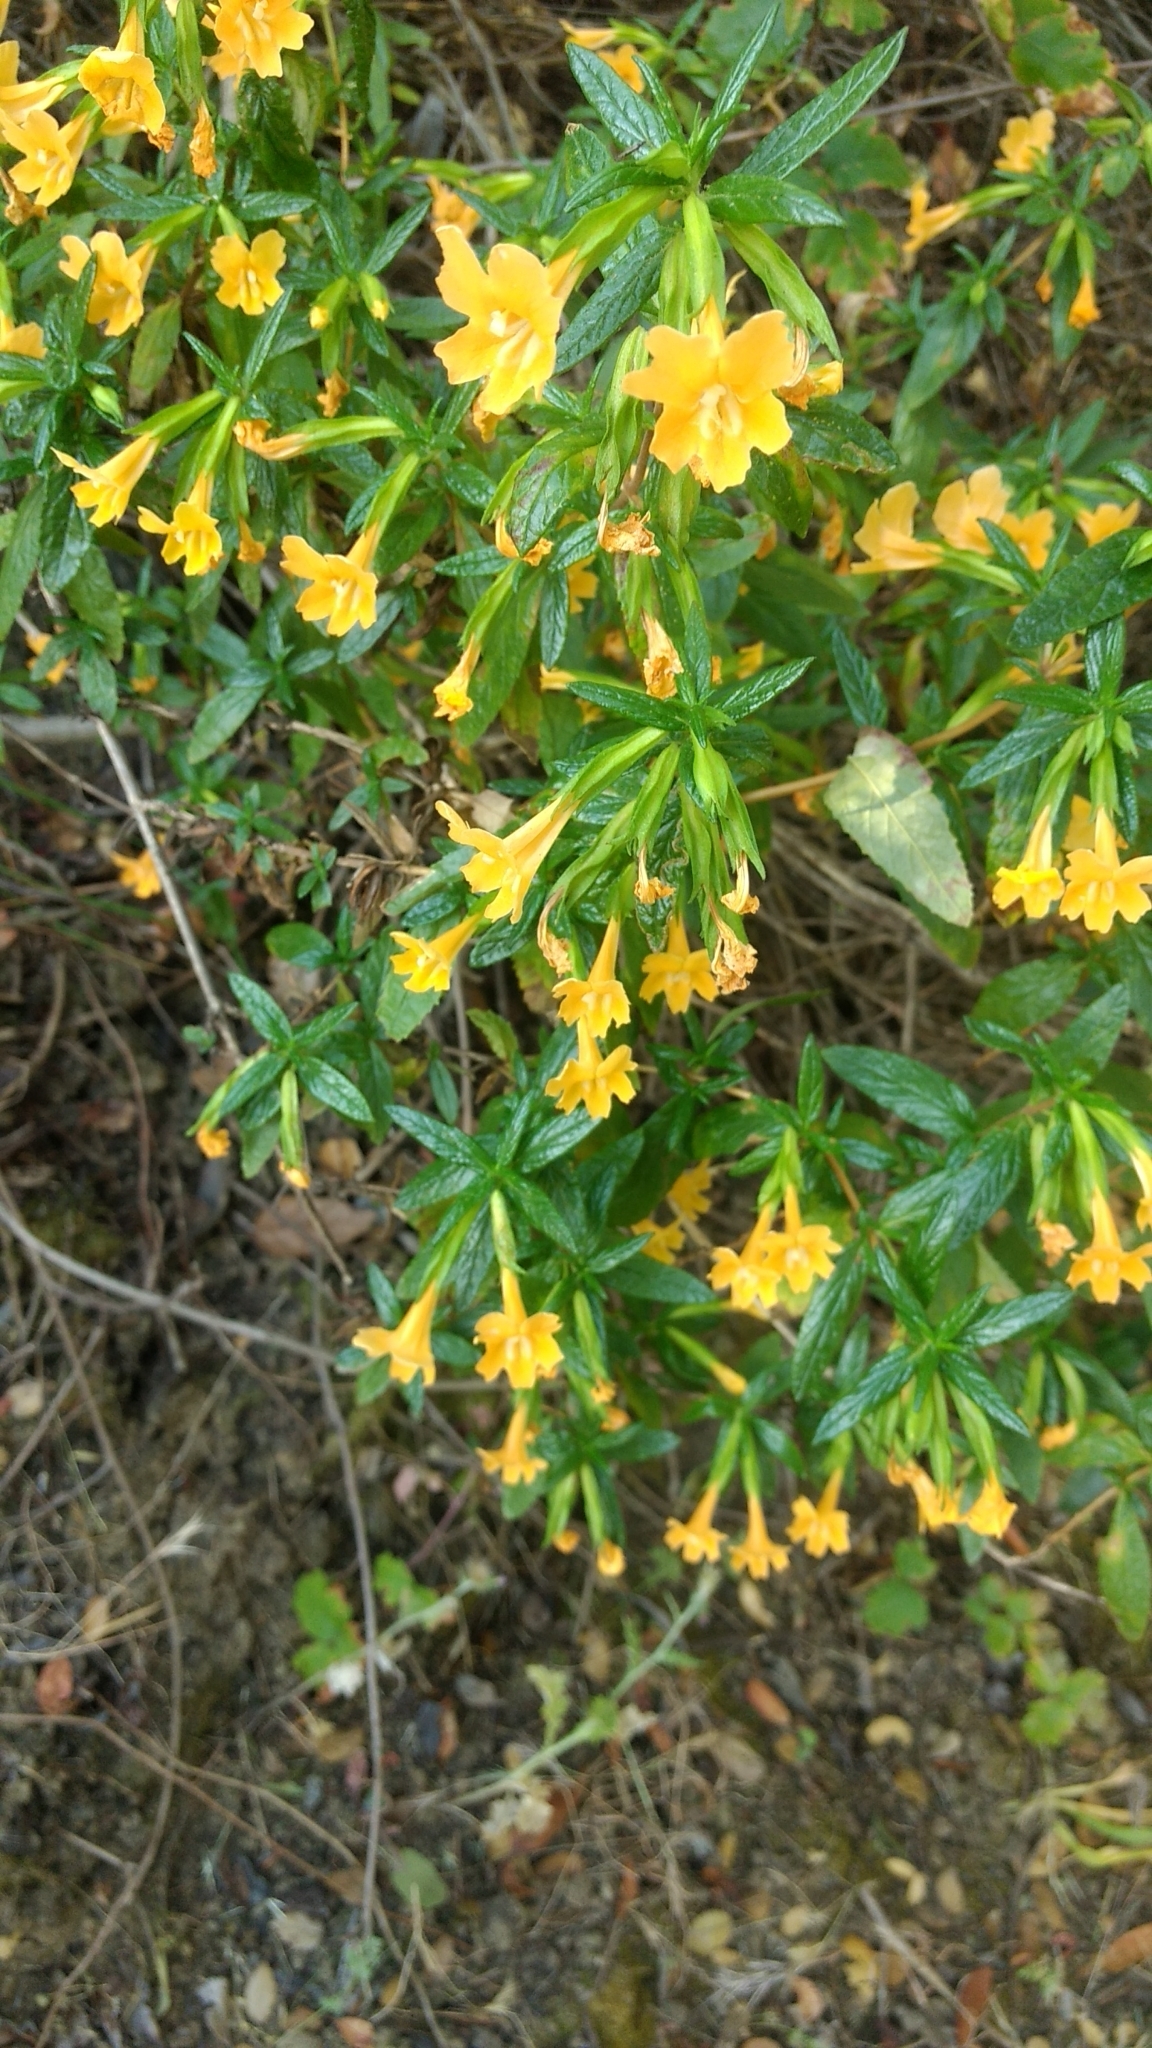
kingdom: Plantae
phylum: Tracheophyta
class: Magnoliopsida
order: Lamiales
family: Phrymaceae
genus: Diplacus
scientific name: Diplacus aurantiacus
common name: Bush monkey-flower
